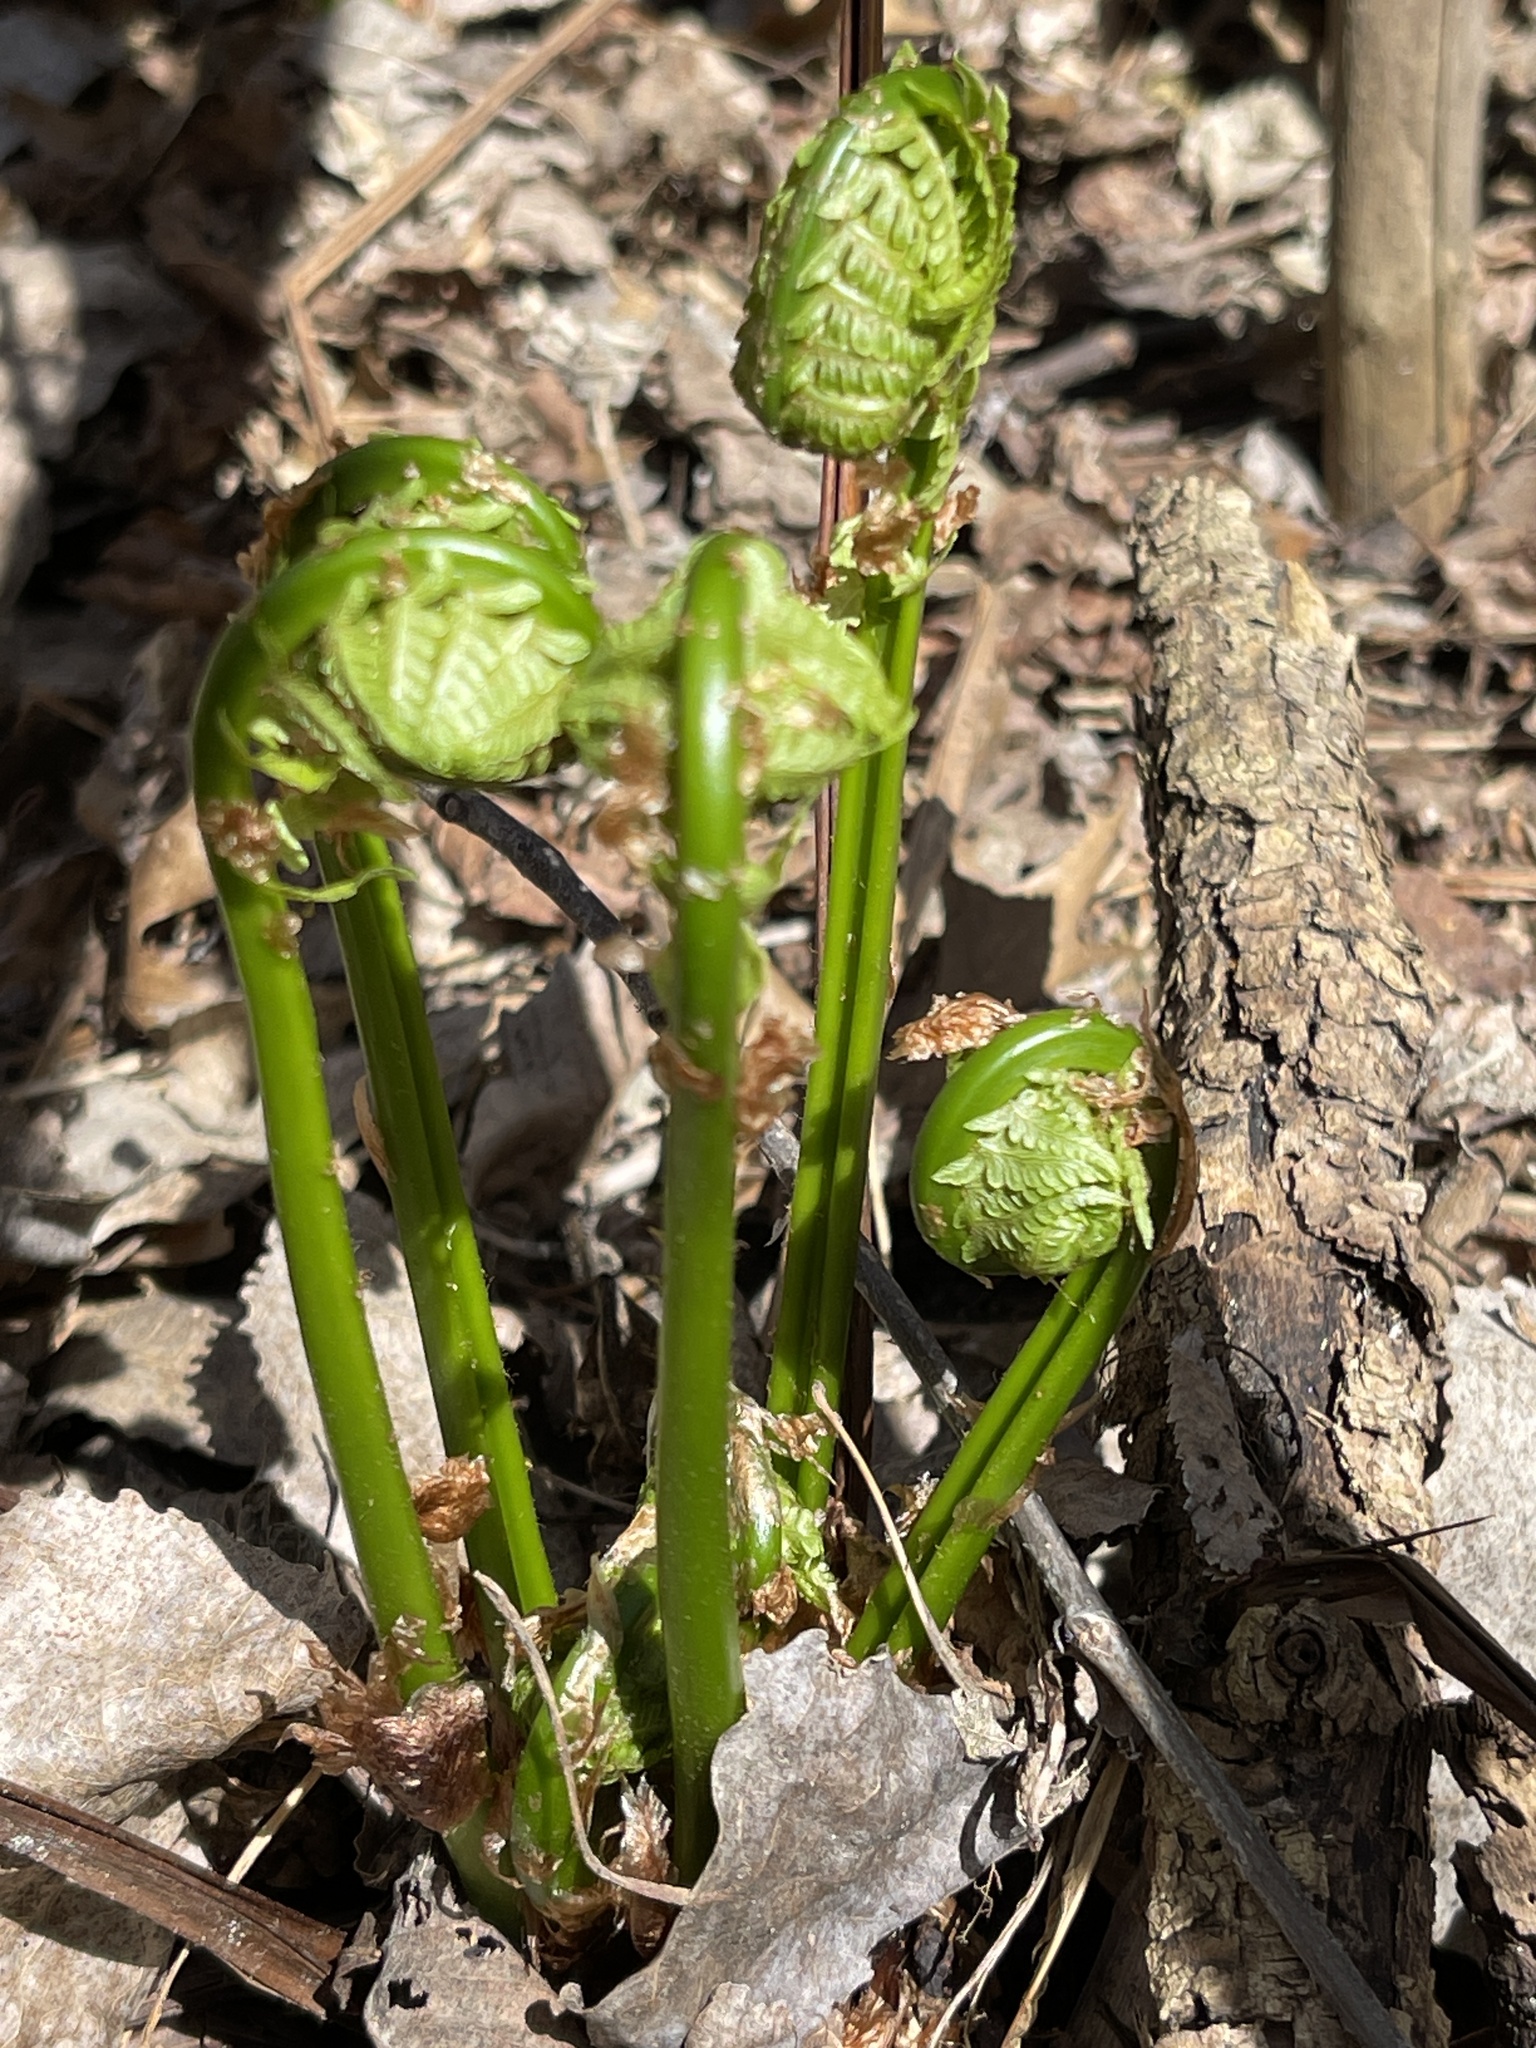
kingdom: Plantae
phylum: Tracheophyta
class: Polypodiopsida
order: Polypodiales
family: Onocleaceae
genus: Matteuccia
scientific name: Matteuccia struthiopteris
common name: Ostrich fern
